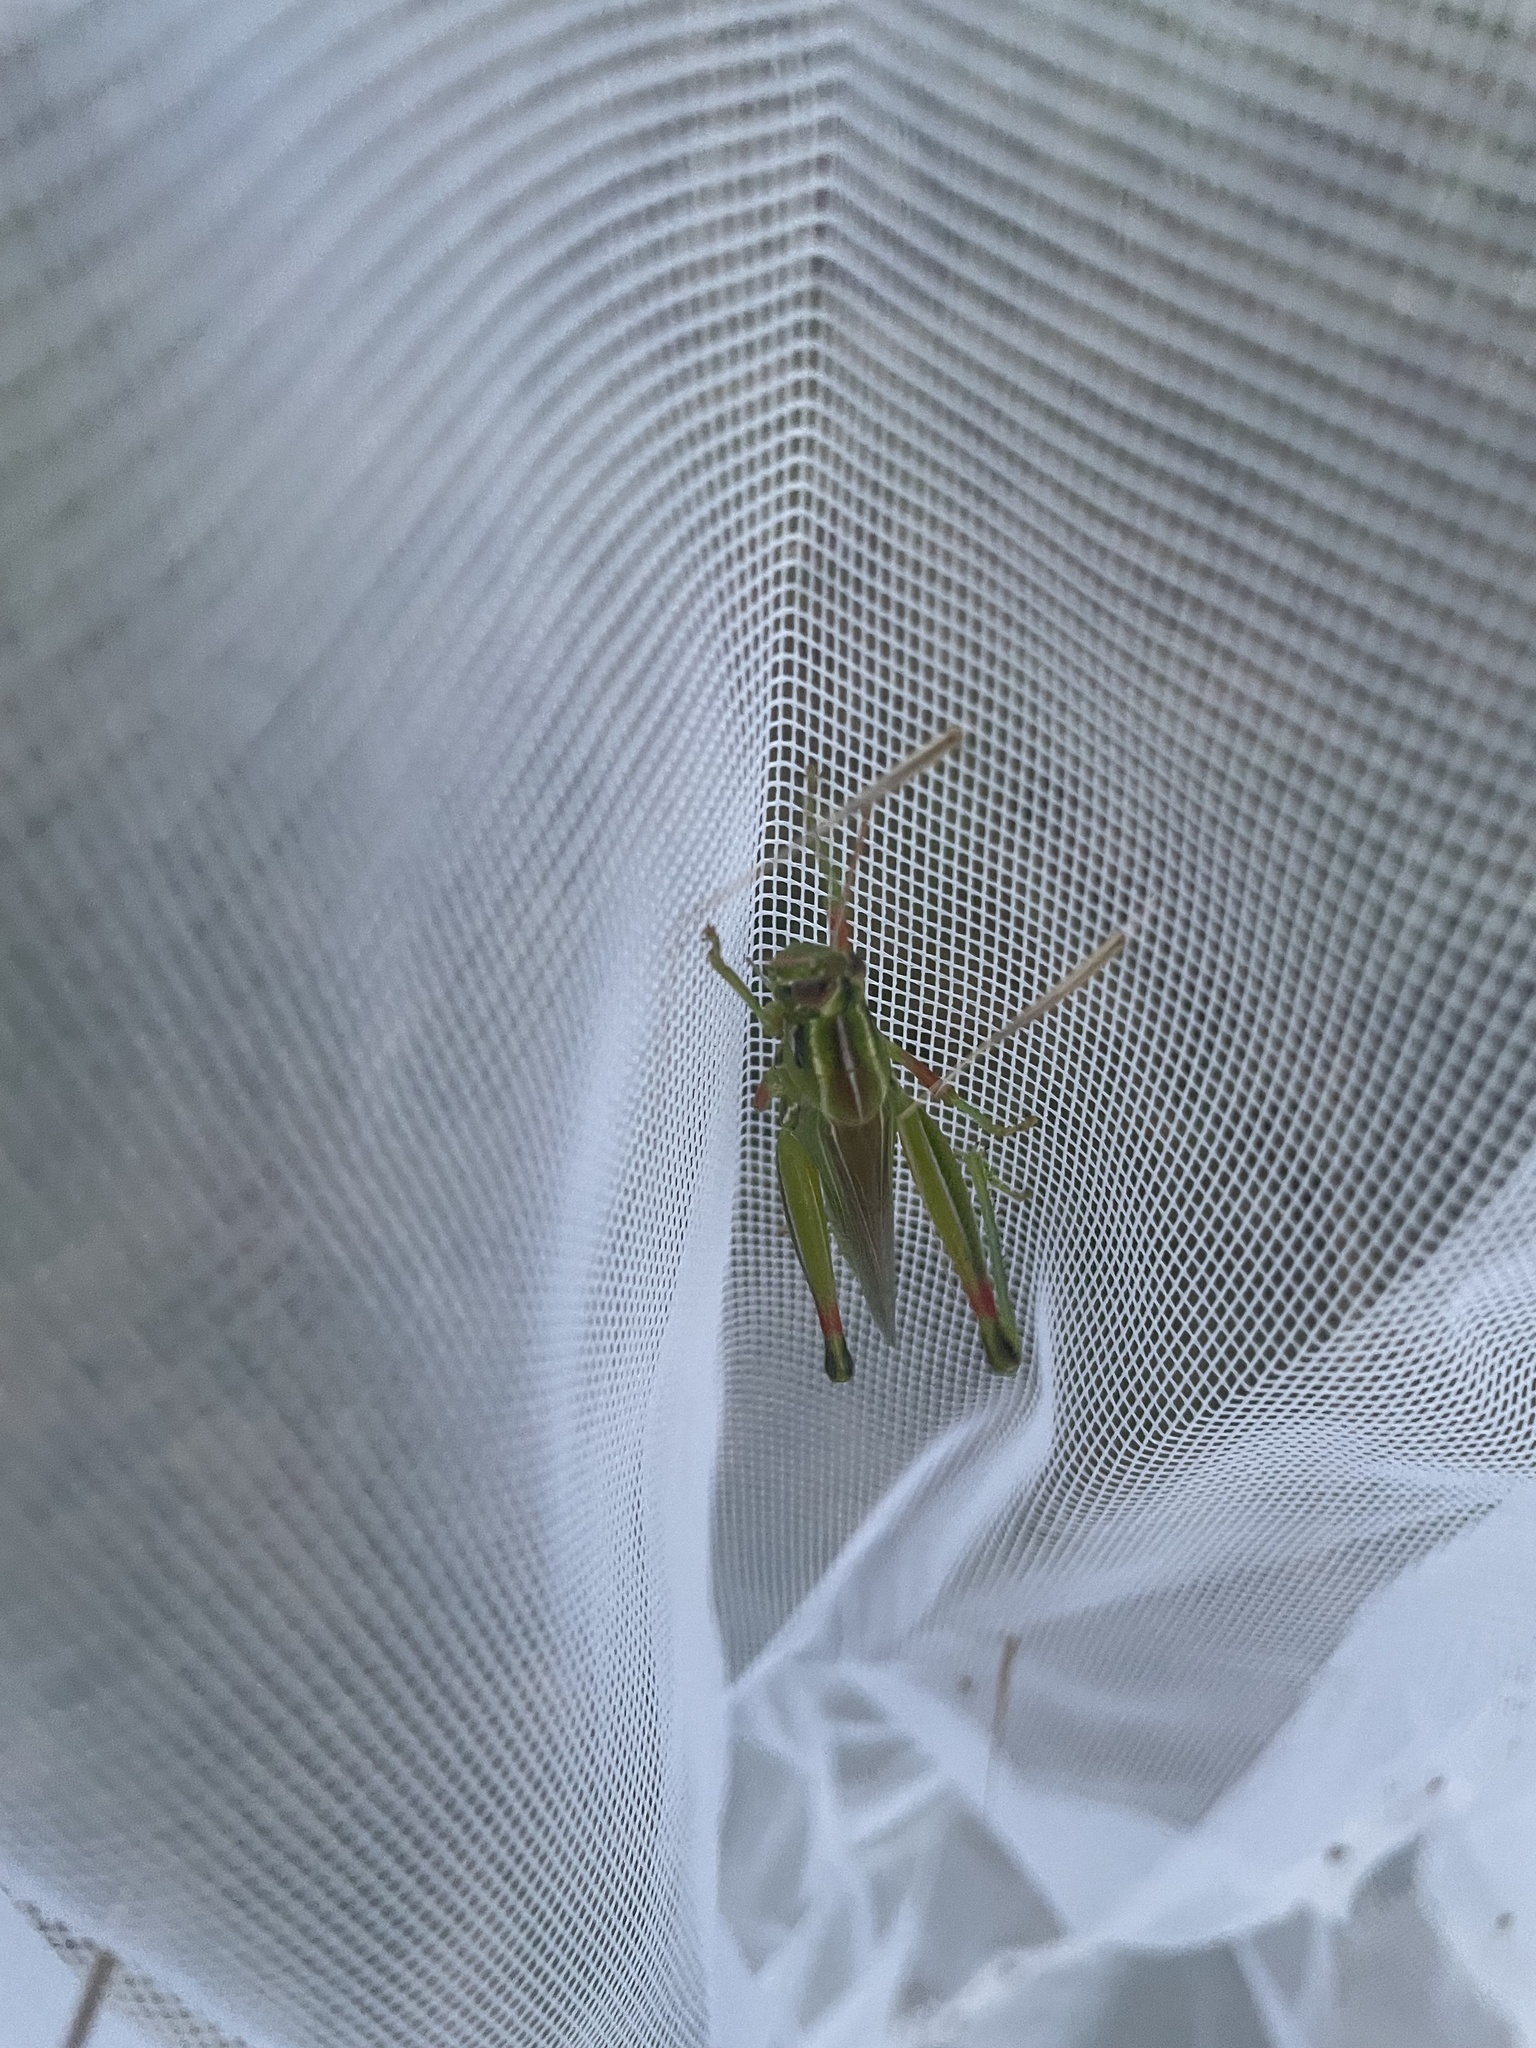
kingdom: Animalia
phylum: Arthropoda
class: Insecta
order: Orthoptera
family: Acrididae
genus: Hesperotettix
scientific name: Hesperotettix viridis
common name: Meadow purple-striped grasshopper
